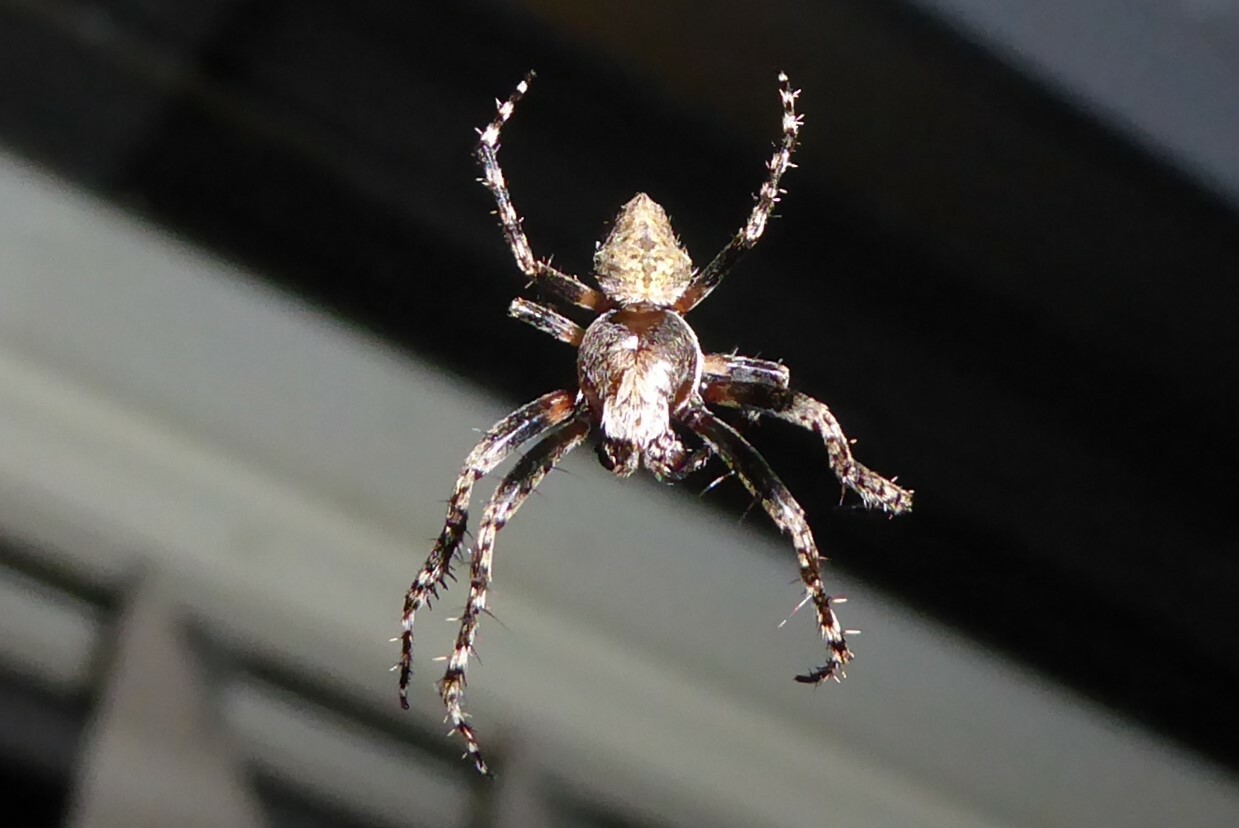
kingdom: Animalia
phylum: Arthropoda
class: Arachnida
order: Araneae
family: Araneidae
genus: Eriophora
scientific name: Eriophora pustulosa
